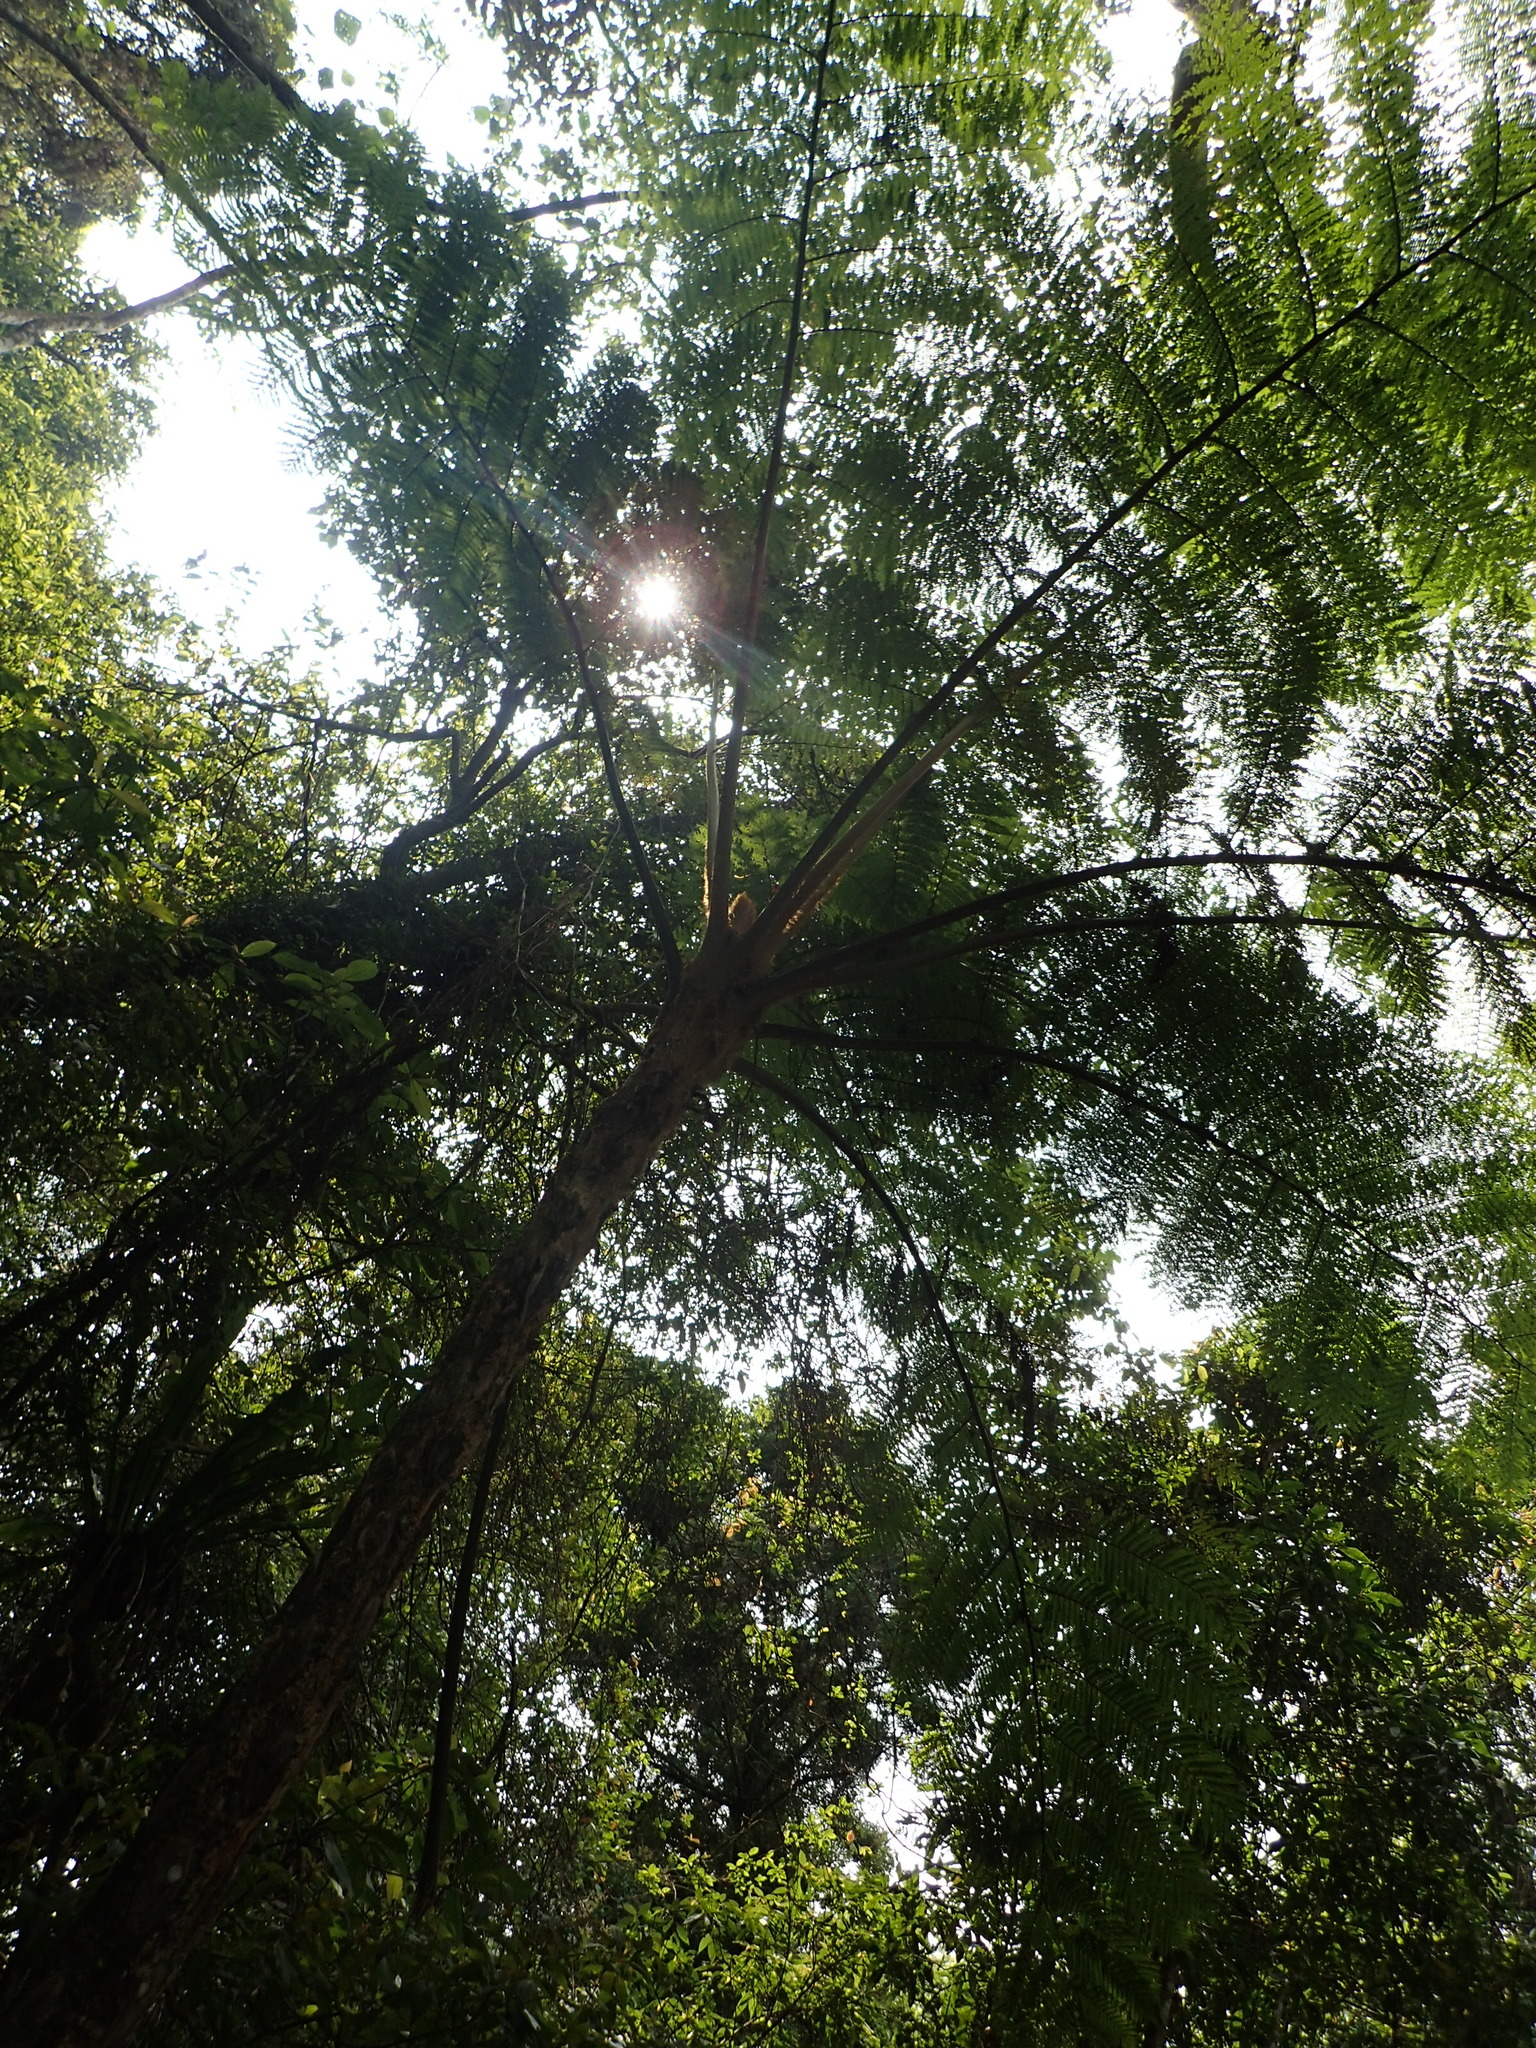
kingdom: Plantae
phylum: Tracheophyta
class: Polypodiopsida
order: Cyatheales
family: Cyatheaceae
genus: Alsophila
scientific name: Alsophila lepifera
